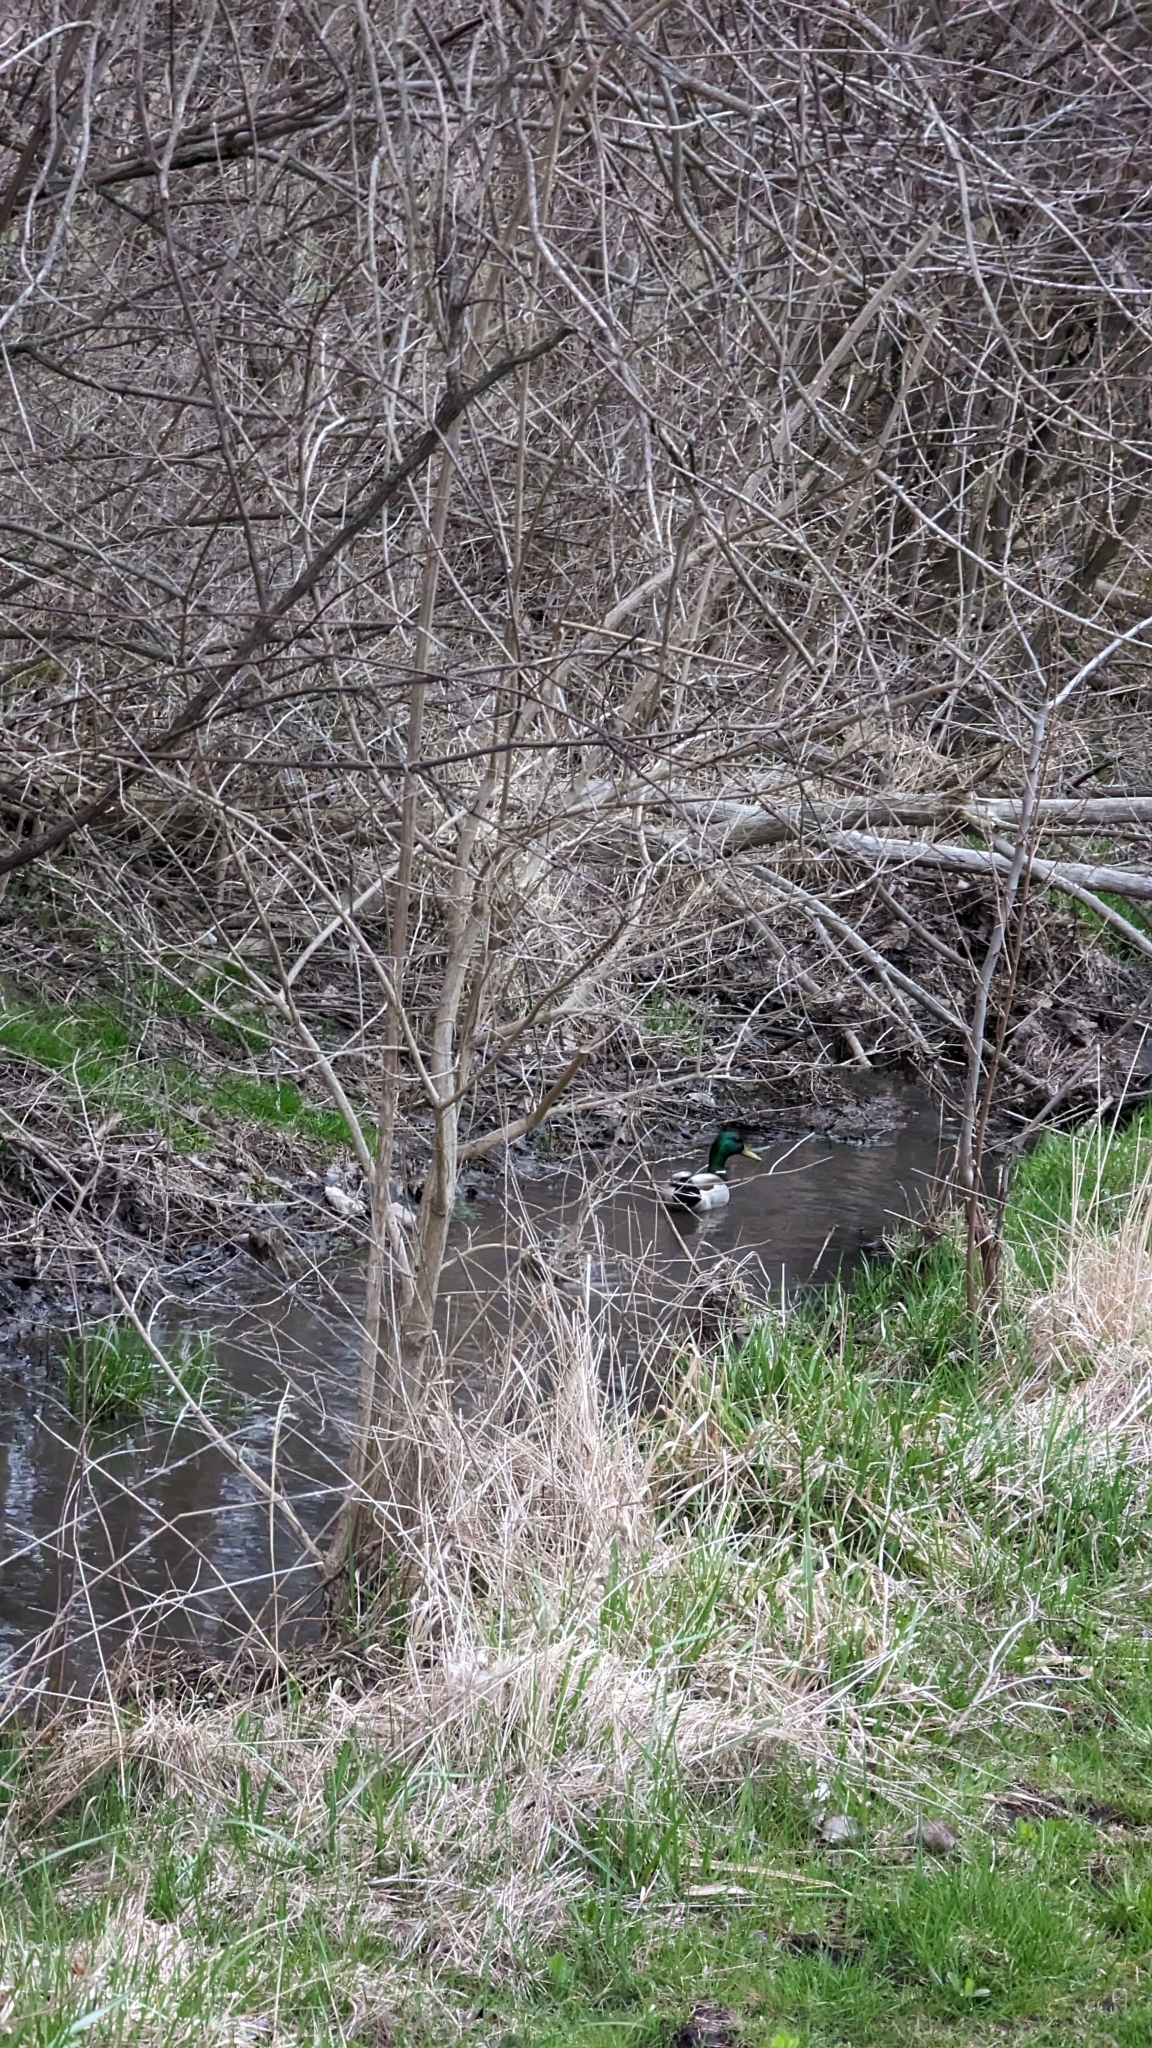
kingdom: Animalia
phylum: Chordata
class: Aves
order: Anseriformes
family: Anatidae
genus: Anas
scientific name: Anas platyrhynchos
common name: Mallard
